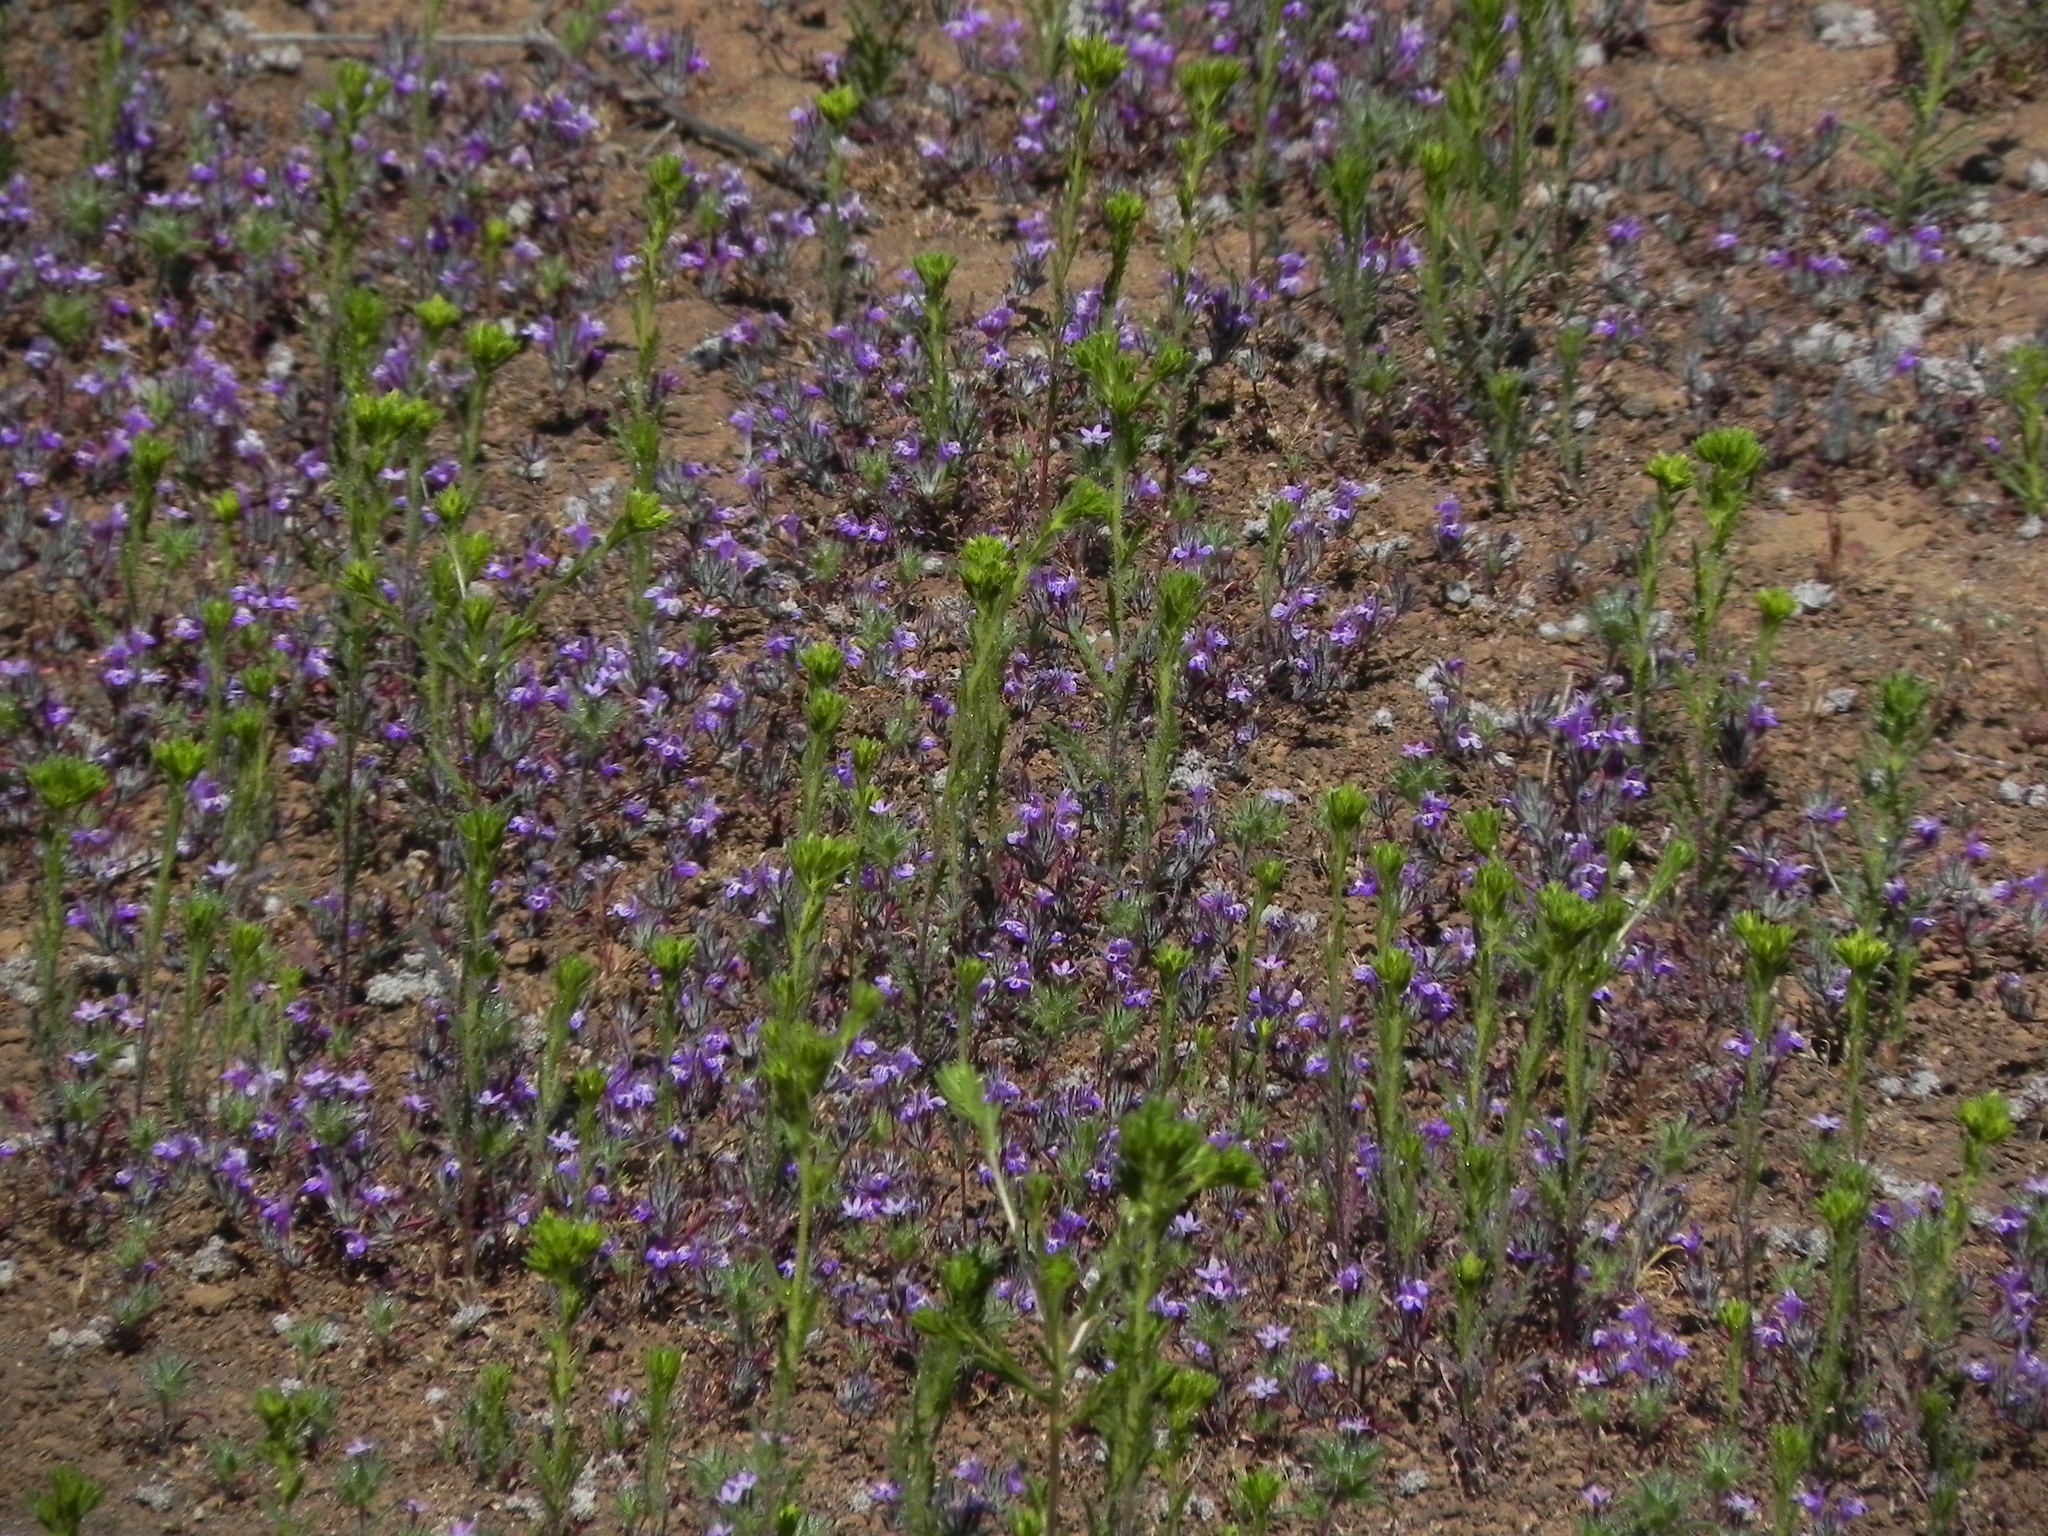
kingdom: Plantae
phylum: Tracheophyta
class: Magnoliopsida
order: Lamiales
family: Lamiaceae
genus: Pogogyne
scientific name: Pogogyne abramsii
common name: San diego mesa-mint
